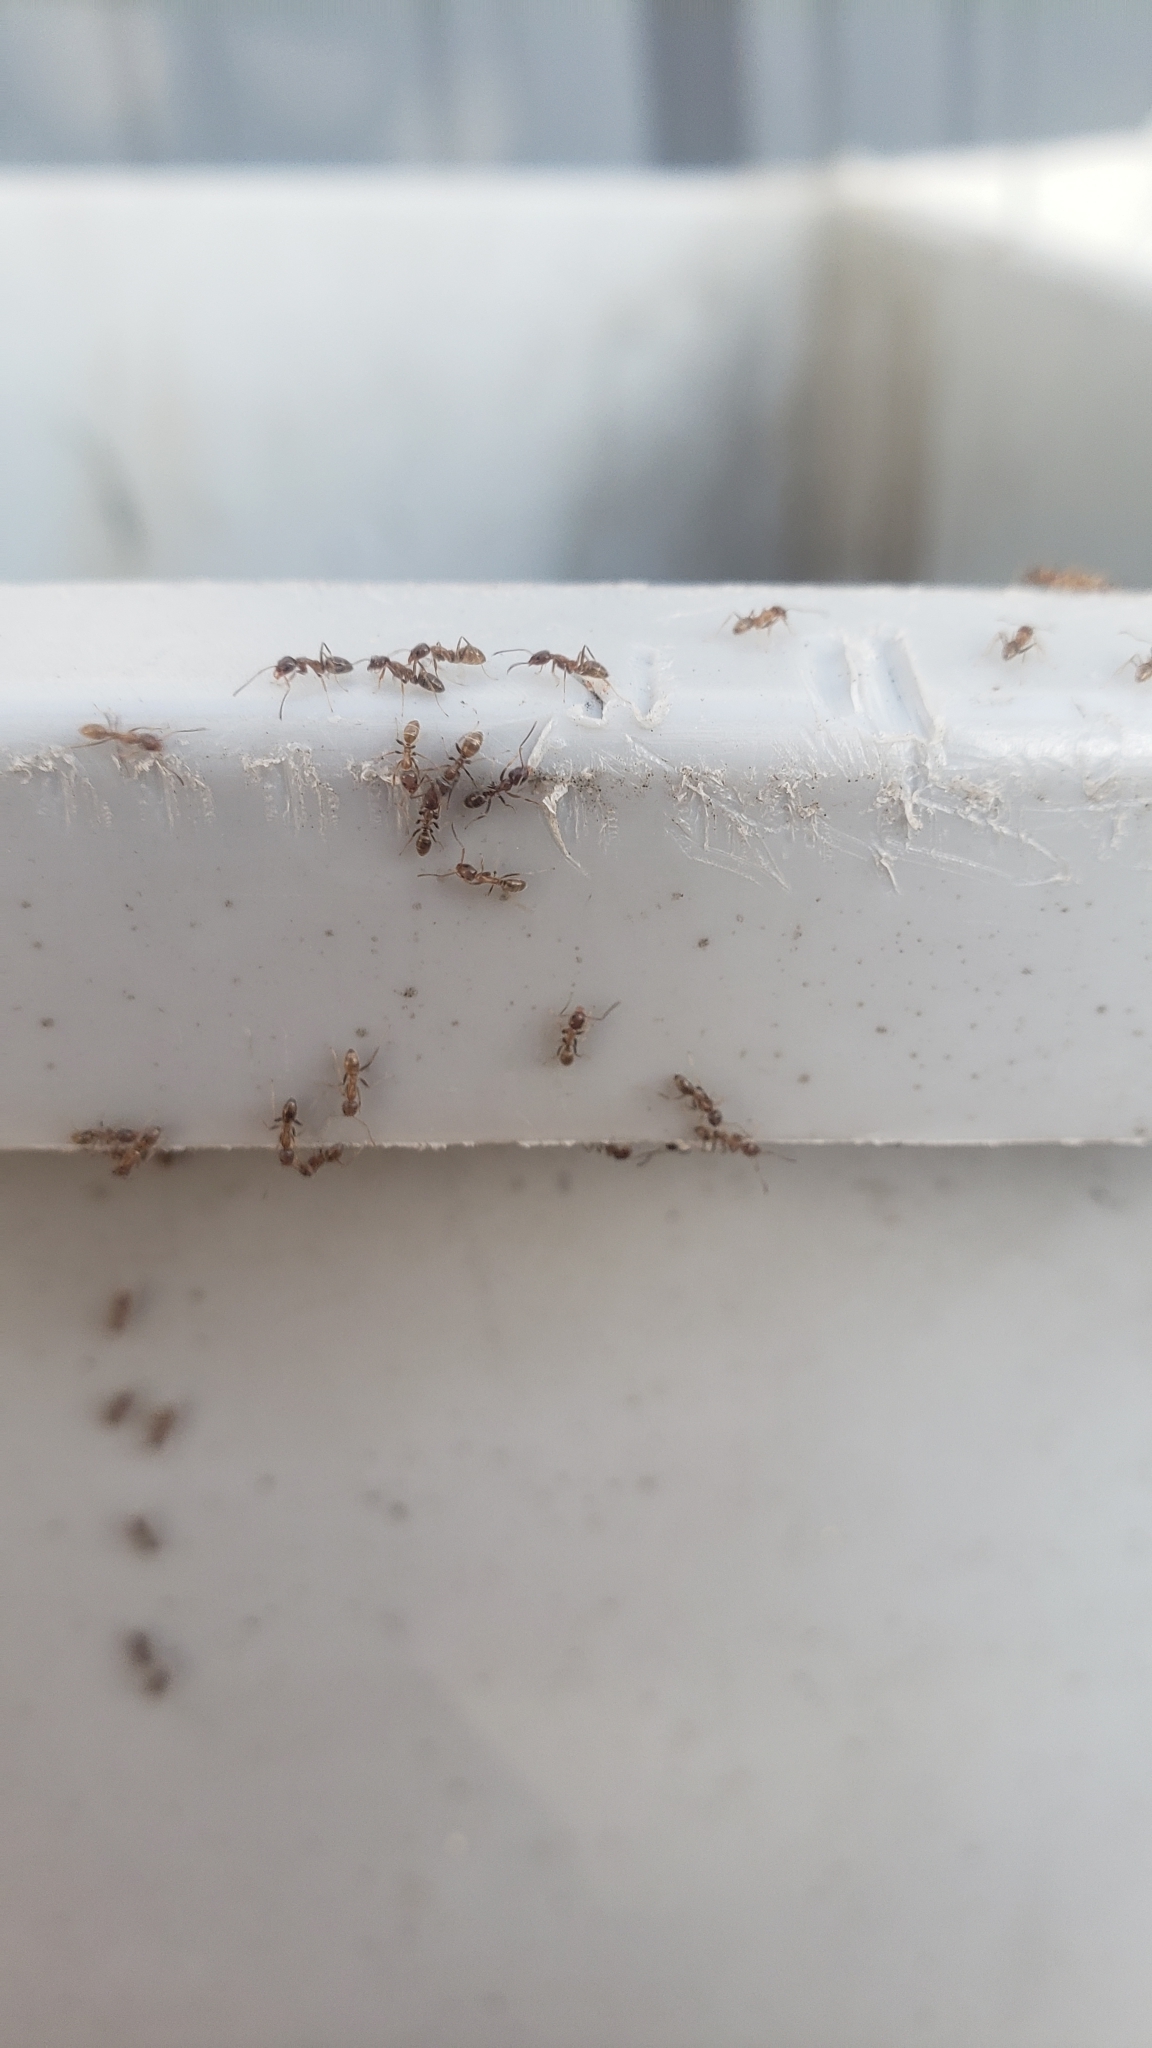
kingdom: Animalia
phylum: Arthropoda
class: Insecta
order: Hymenoptera
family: Formicidae
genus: Linepithema
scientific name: Linepithema humile
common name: Argentine ant
